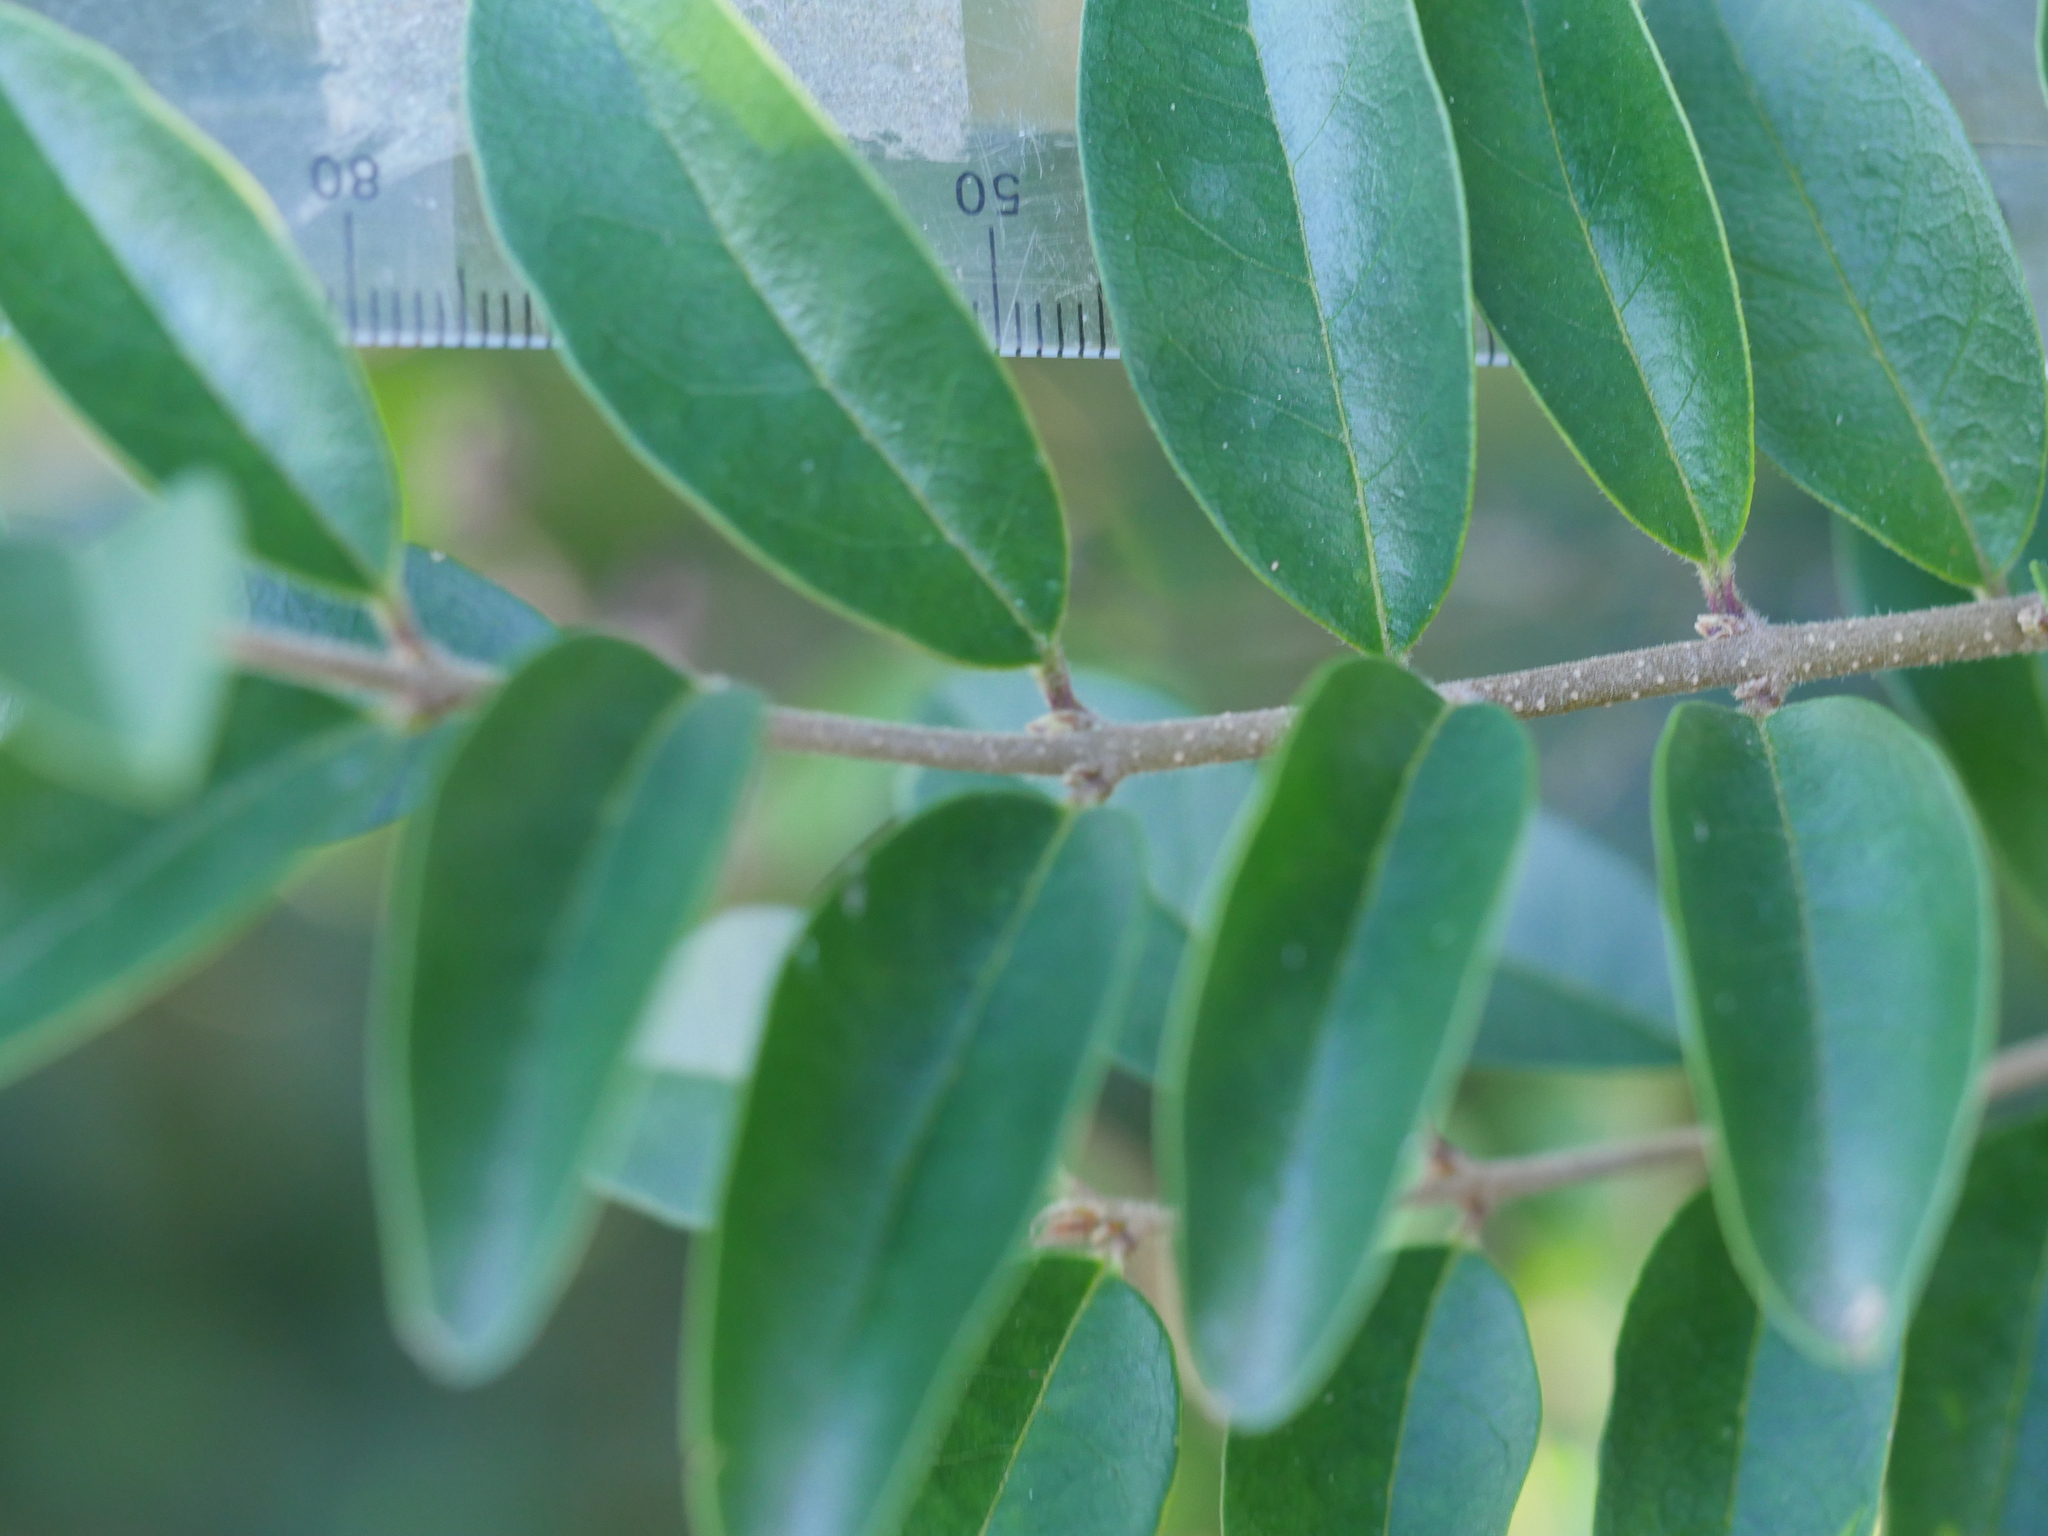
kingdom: Plantae
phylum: Tracheophyta
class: Magnoliopsida
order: Lamiales
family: Oleaceae
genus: Ligustrum
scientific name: Ligustrum sinense
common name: Chinese privet
